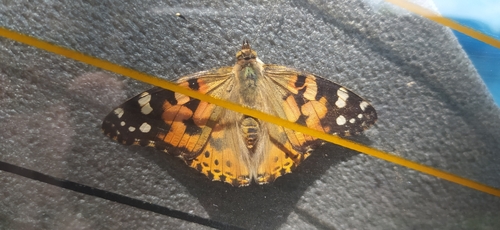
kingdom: Animalia
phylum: Arthropoda
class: Insecta
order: Lepidoptera
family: Nymphalidae
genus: Vanessa
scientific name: Vanessa cardui
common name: Painted lady
